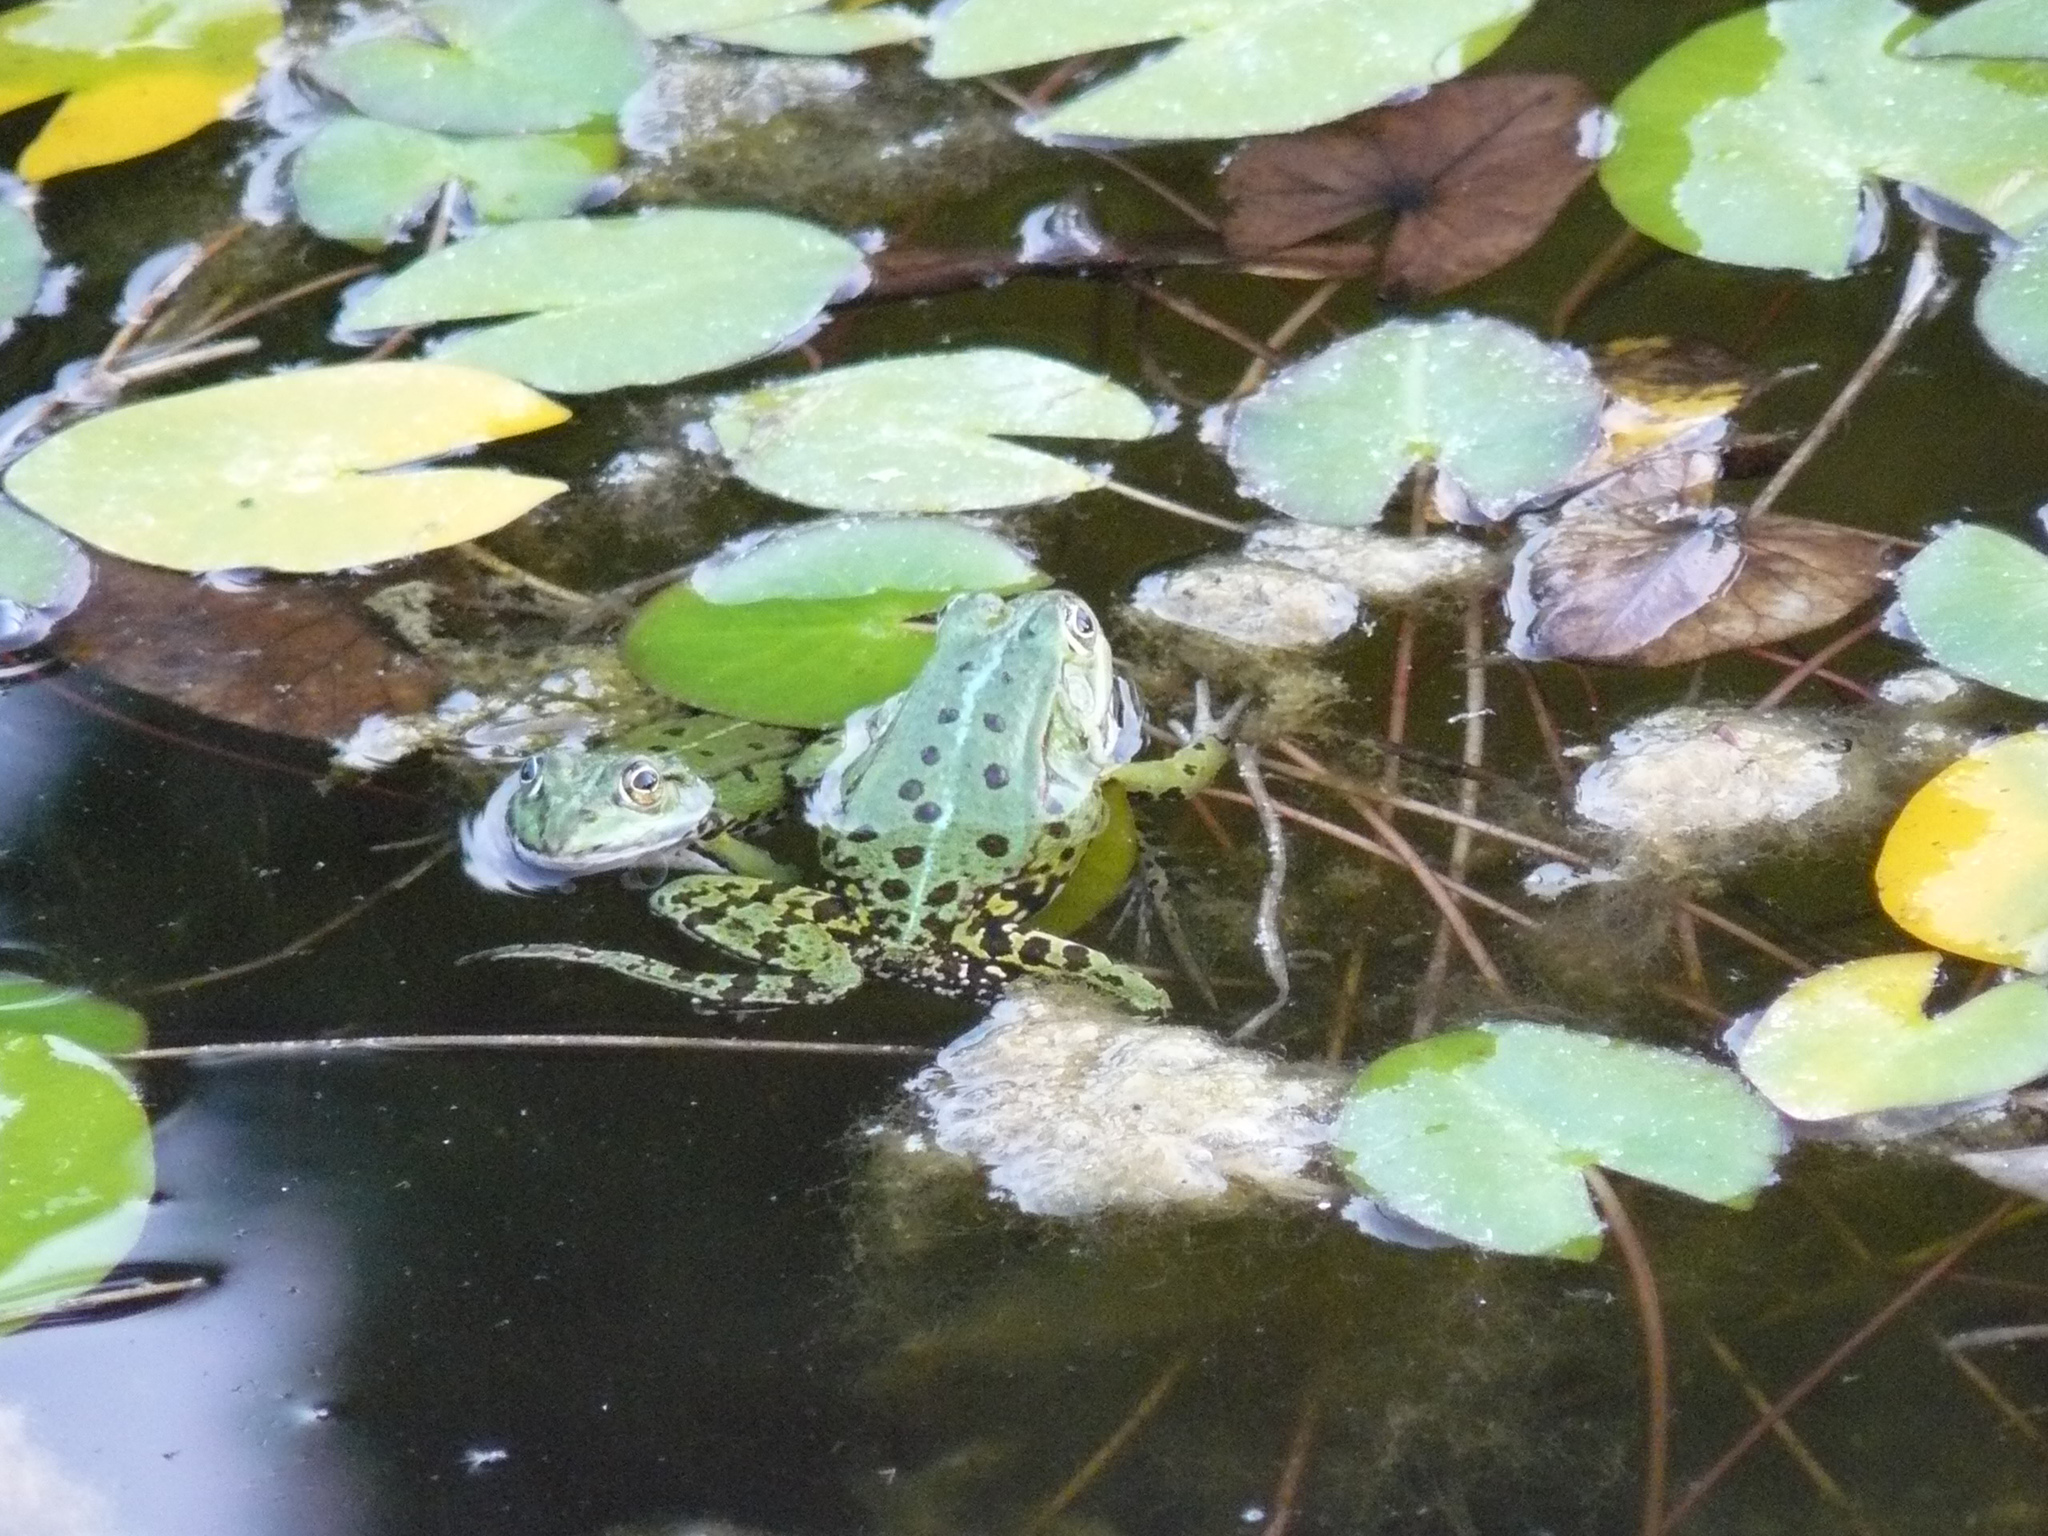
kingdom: Animalia
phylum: Chordata
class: Amphibia
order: Anura
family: Ranidae
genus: Pelophylax
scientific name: Pelophylax
